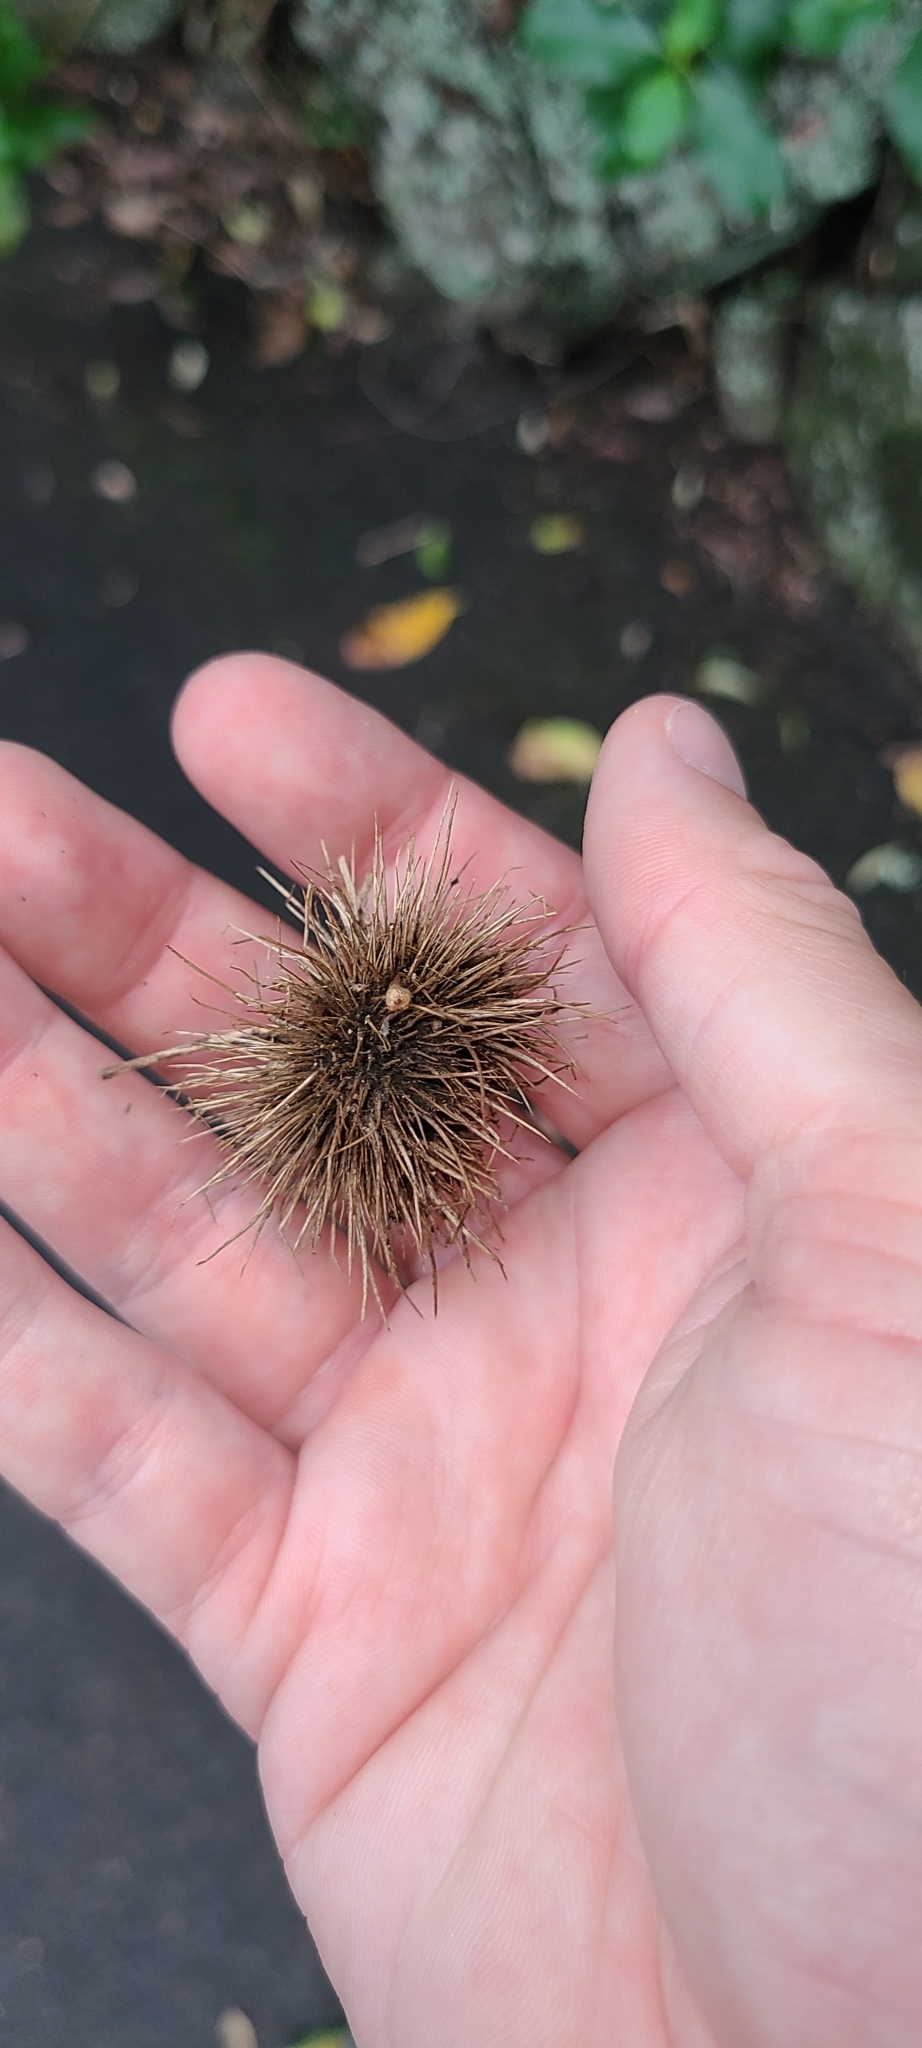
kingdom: Plantae
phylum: Tracheophyta
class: Magnoliopsida
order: Malvales
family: Malvaceae
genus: Entelea
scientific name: Entelea arborescens
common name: New zealand-mulberry
